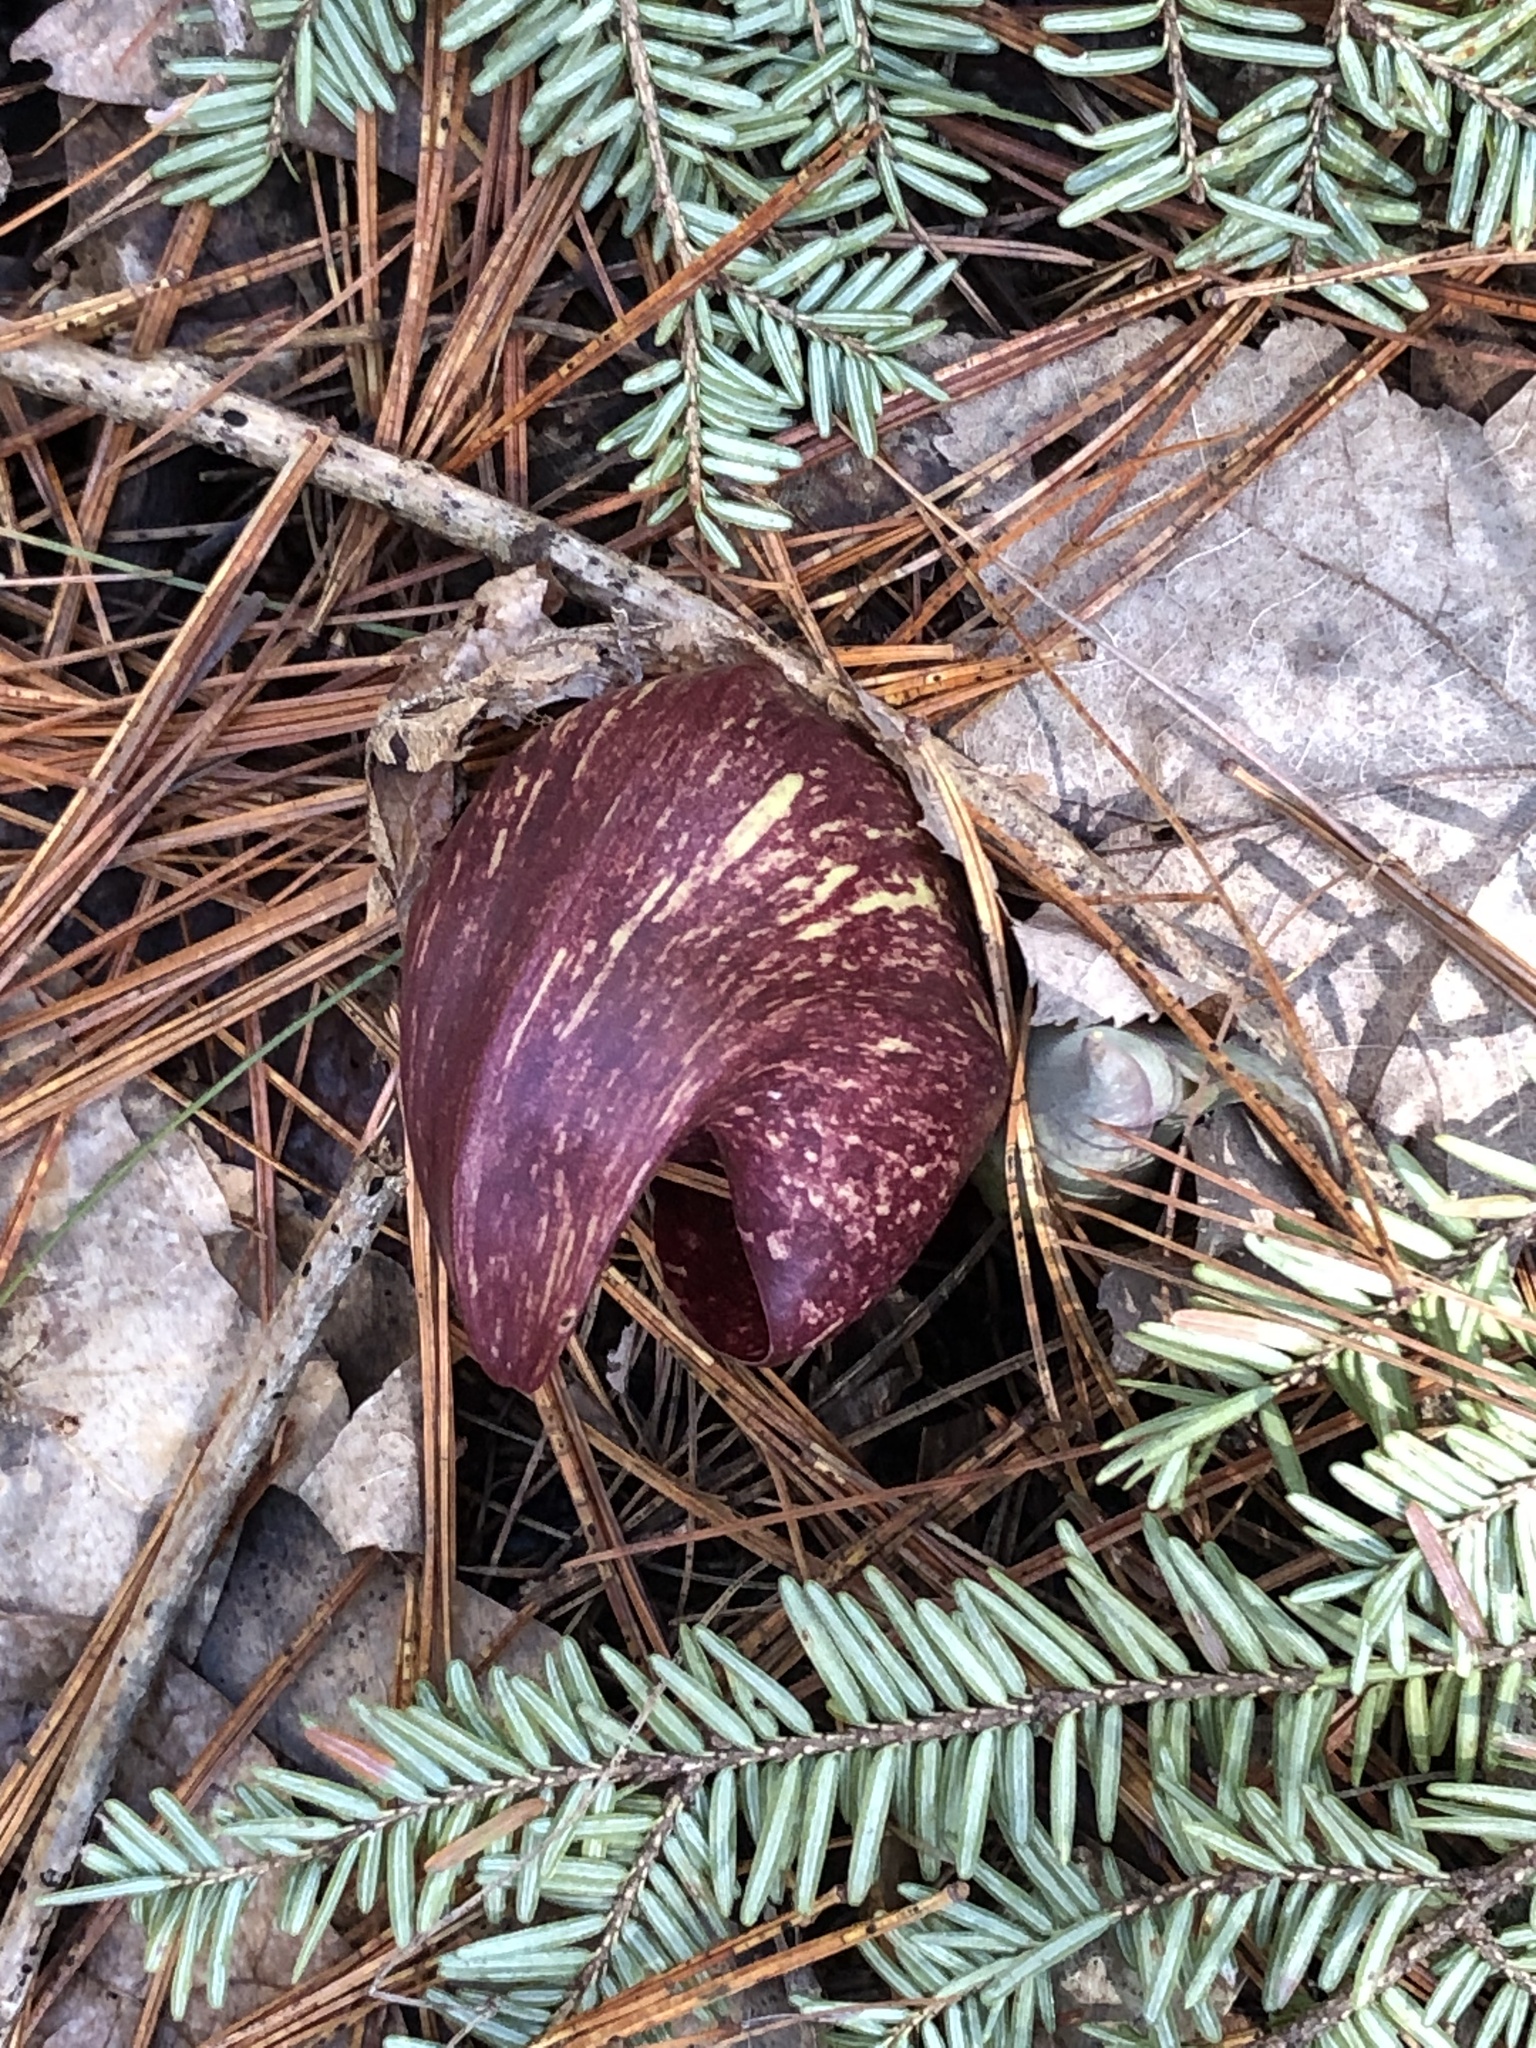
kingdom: Plantae
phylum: Tracheophyta
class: Liliopsida
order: Alismatales
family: Araceae
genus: Symplocarpus
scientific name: Symplocarpus foetidus
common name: Eastern skunk cabbage
